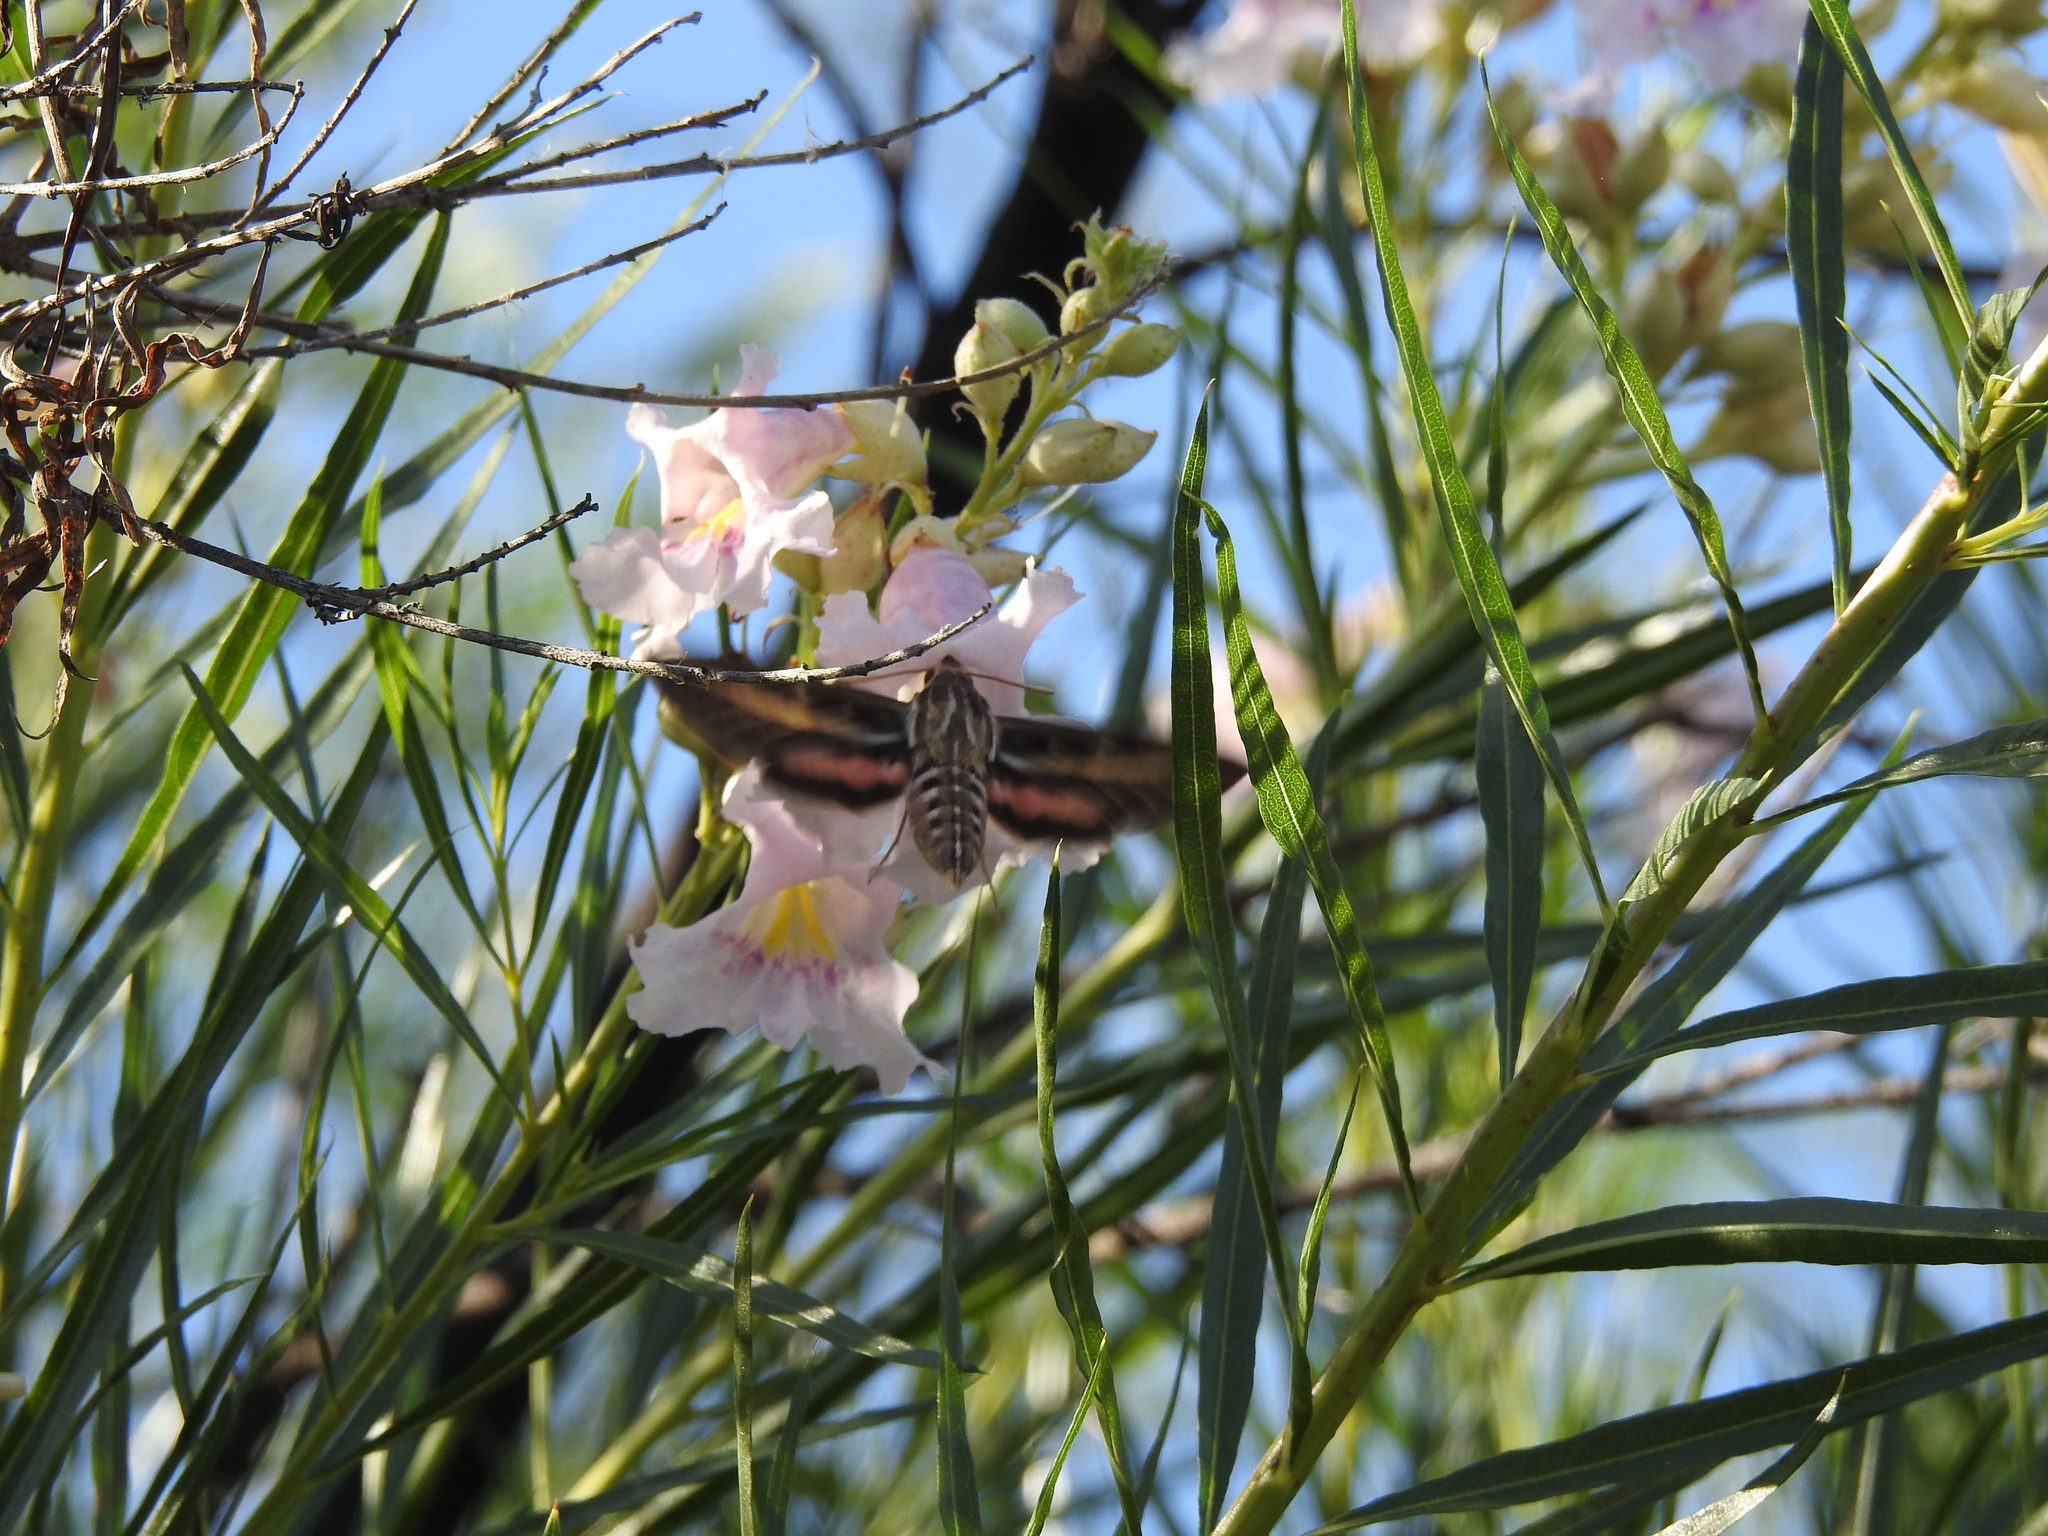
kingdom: Animalia
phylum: Arthropoda
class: Insecta
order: Lepidoptera
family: Sphingidae
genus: Hyles
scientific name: Hyles lineata
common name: White-lined sphinx
